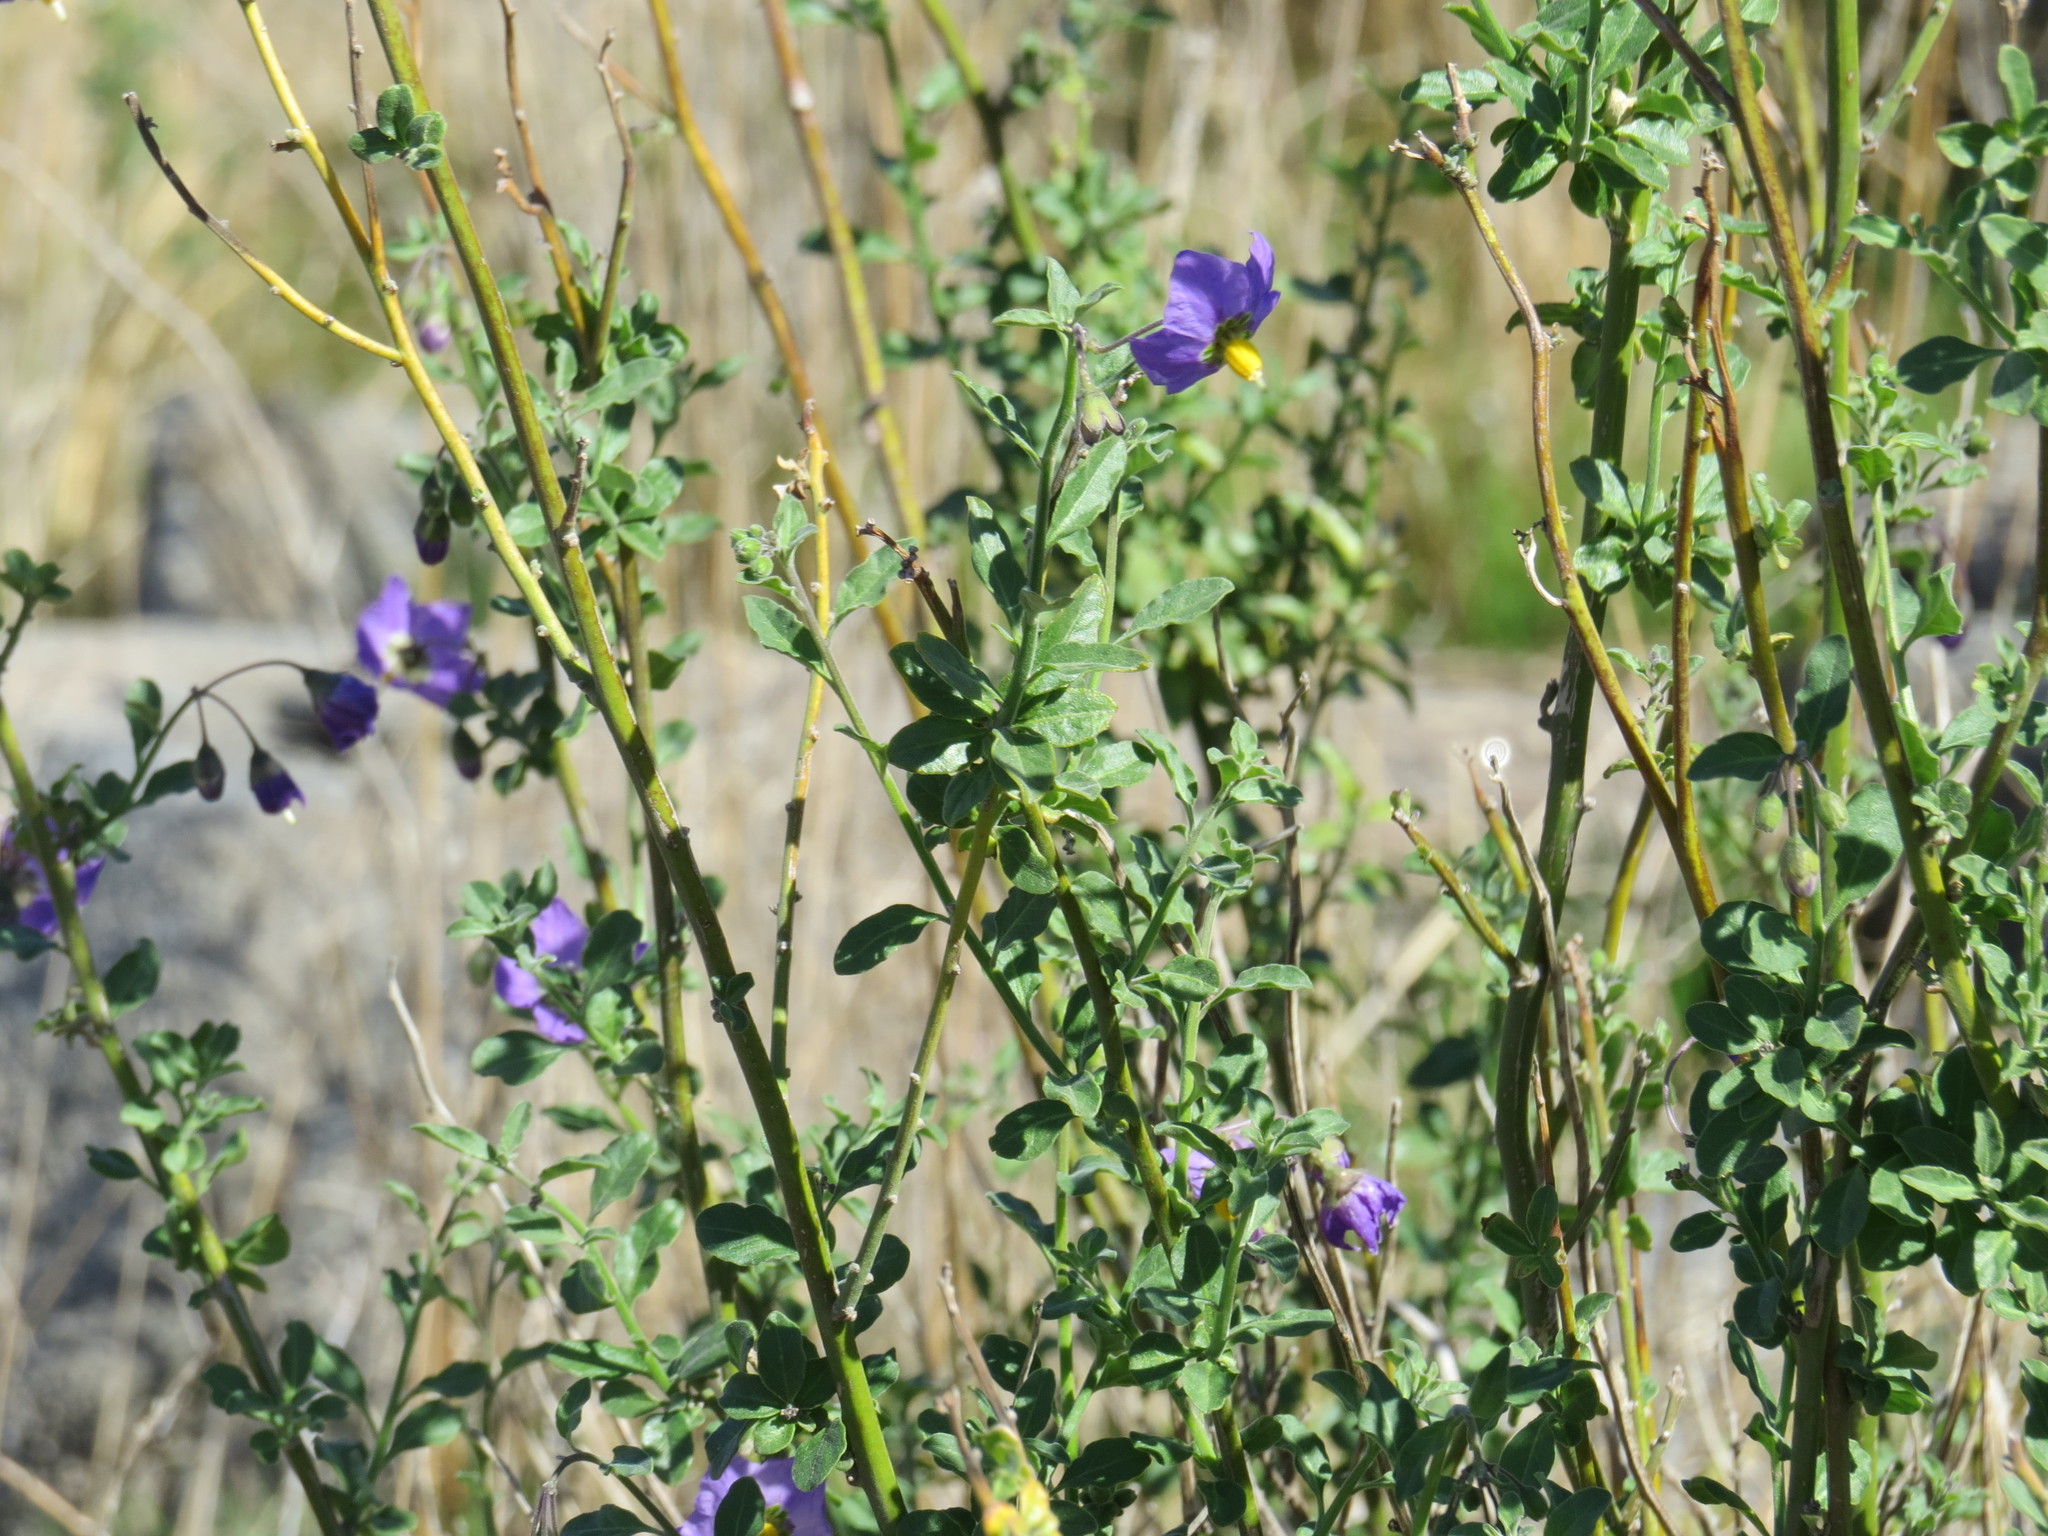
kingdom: Plantae
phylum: Tracheophyta
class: Magnoliopsida
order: Solanales
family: Solanaceae
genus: Solanum
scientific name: Solanum umbelliferum
